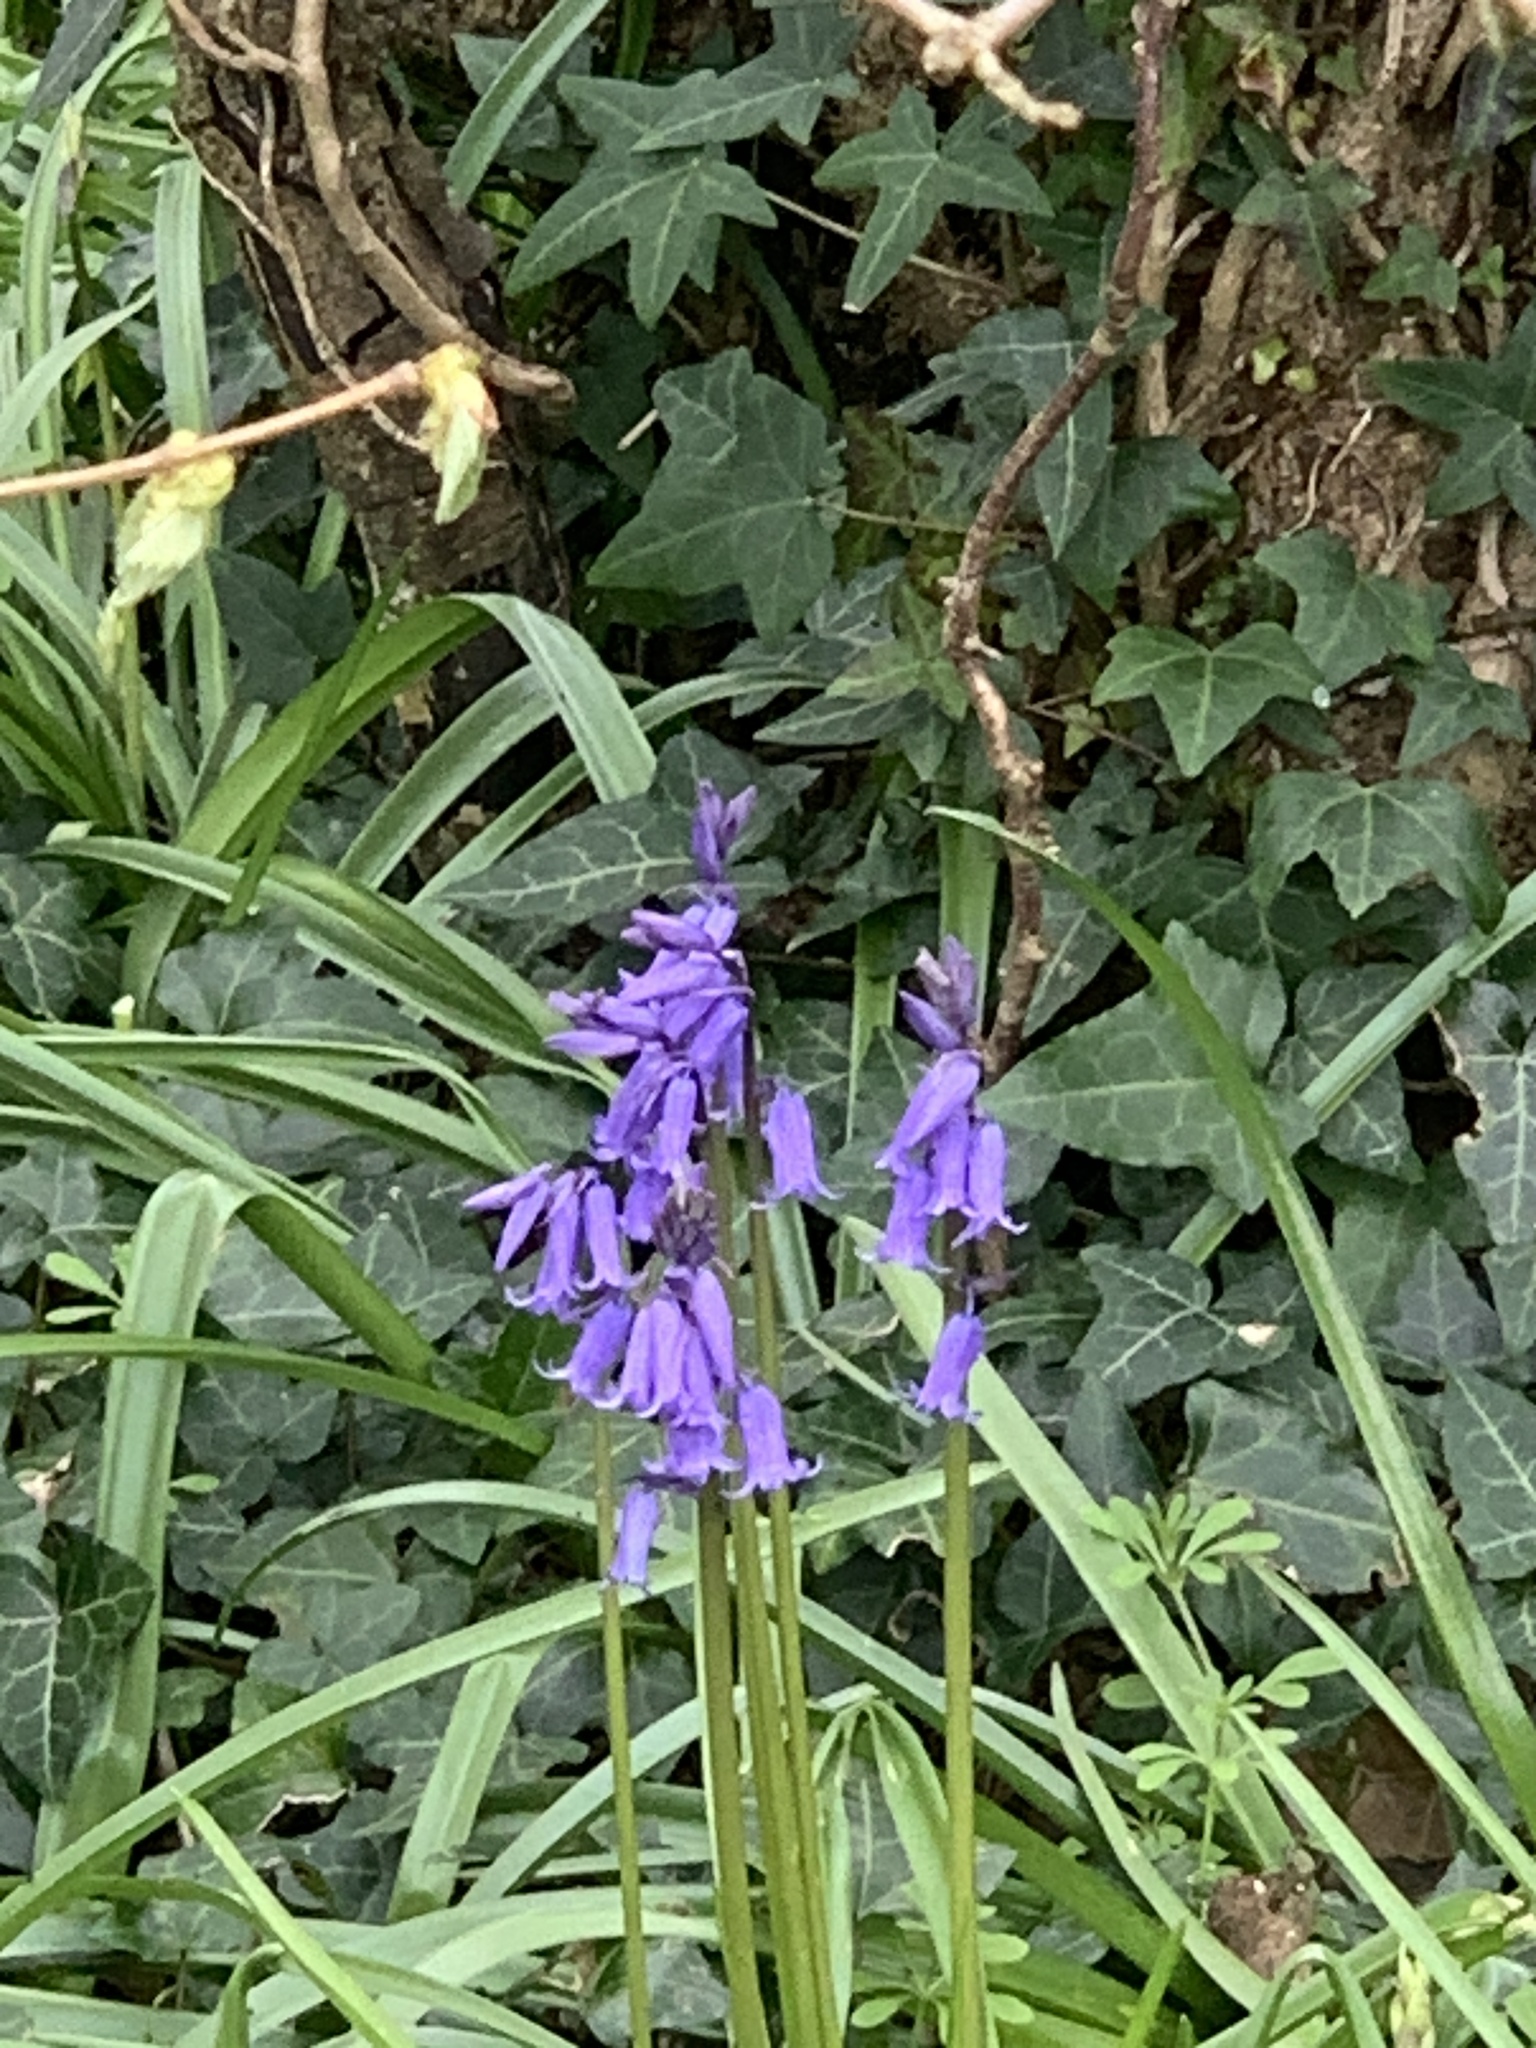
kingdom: Plantae
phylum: Tracheophyta
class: Liliopsida
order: Asparagales
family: Asparagaceae
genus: Hyacinthoides
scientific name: Hyacinthoides non-scripta
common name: Bluebell
